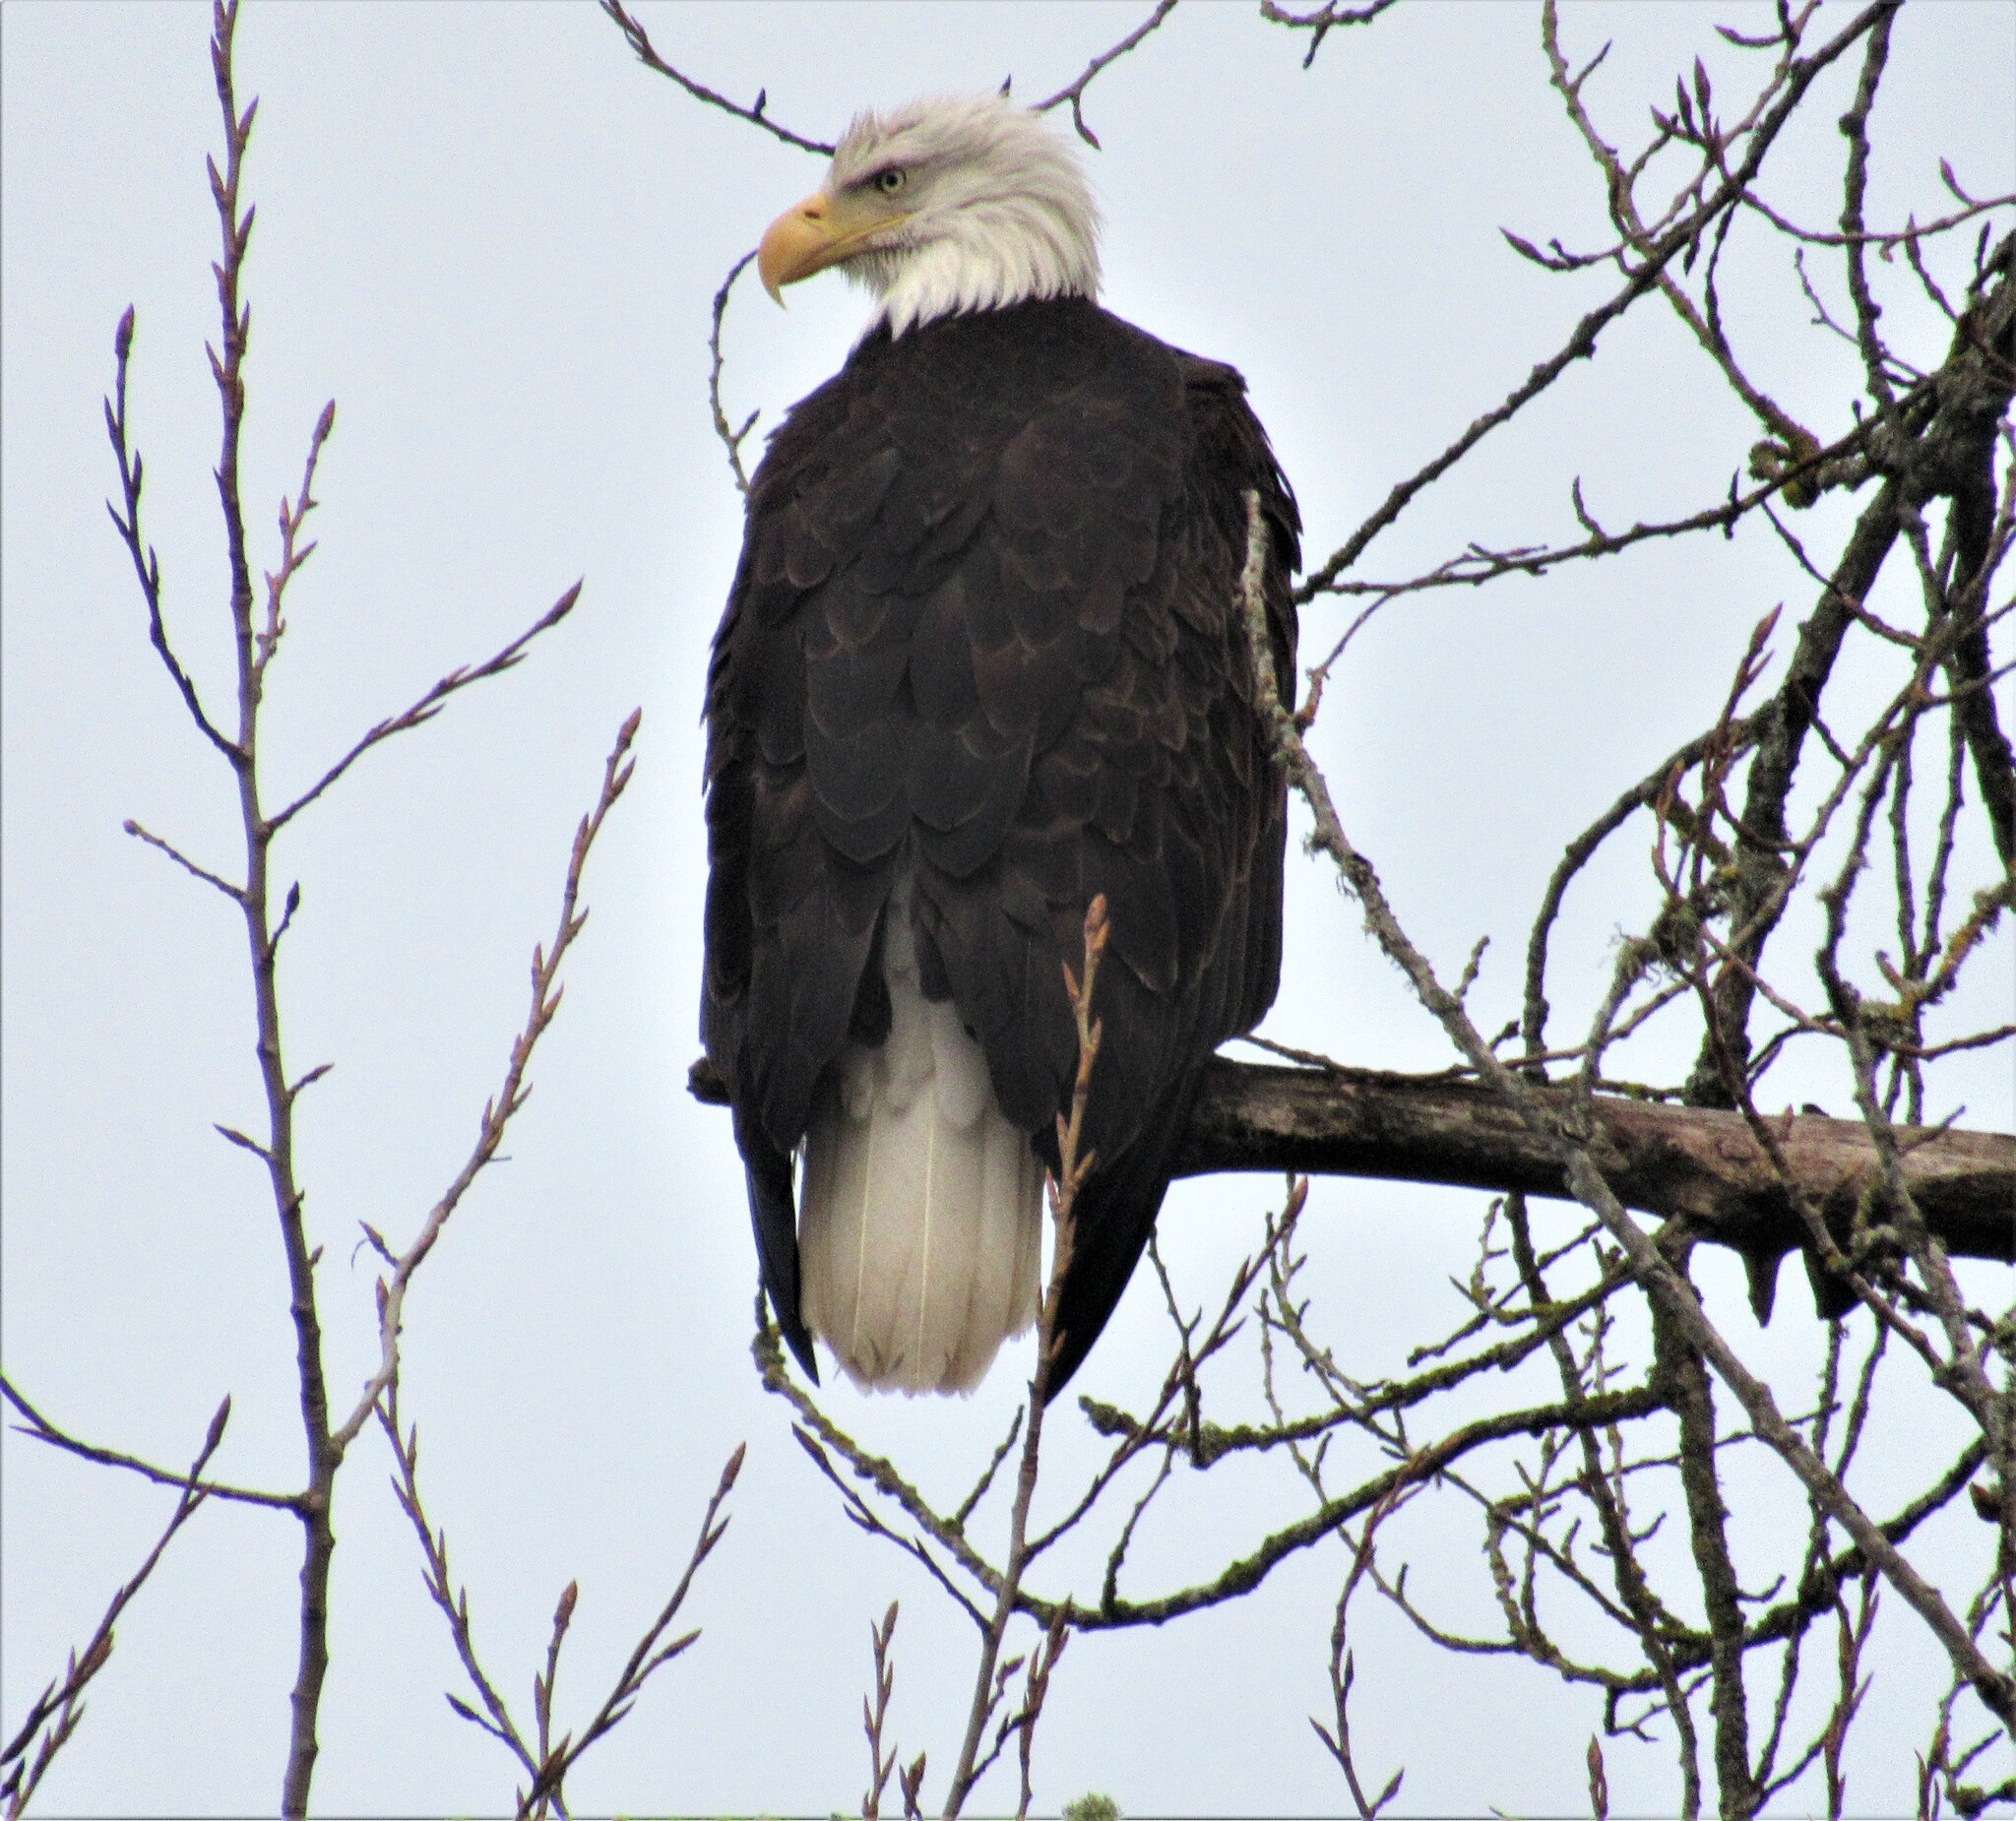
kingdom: Animalia
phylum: Chordata
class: Aves
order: Accipitriformes
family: Accipitridae
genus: Haliaeetus
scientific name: Haliaeetus leucocephalus
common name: Bald eagle
